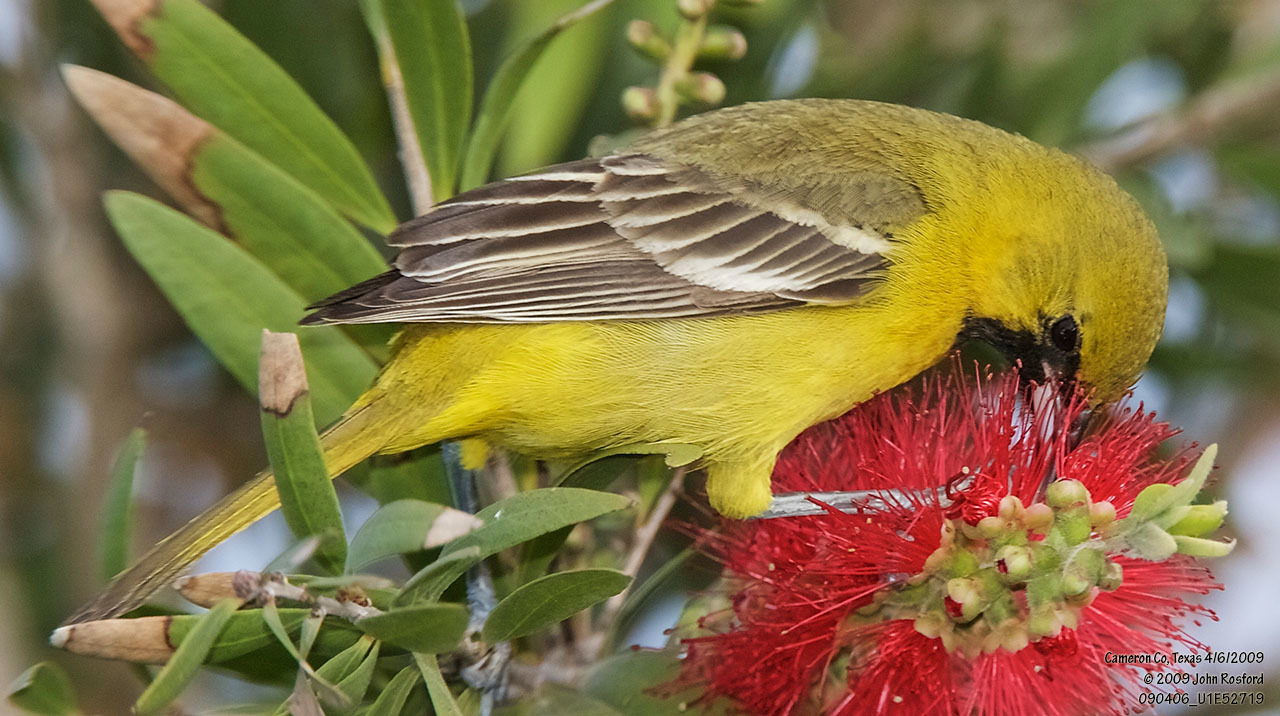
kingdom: Animalia
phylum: Chordata
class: Aves
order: Passeriformes
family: Icteridae
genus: Icterus
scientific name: Icterus spurius
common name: Orchard oriole
